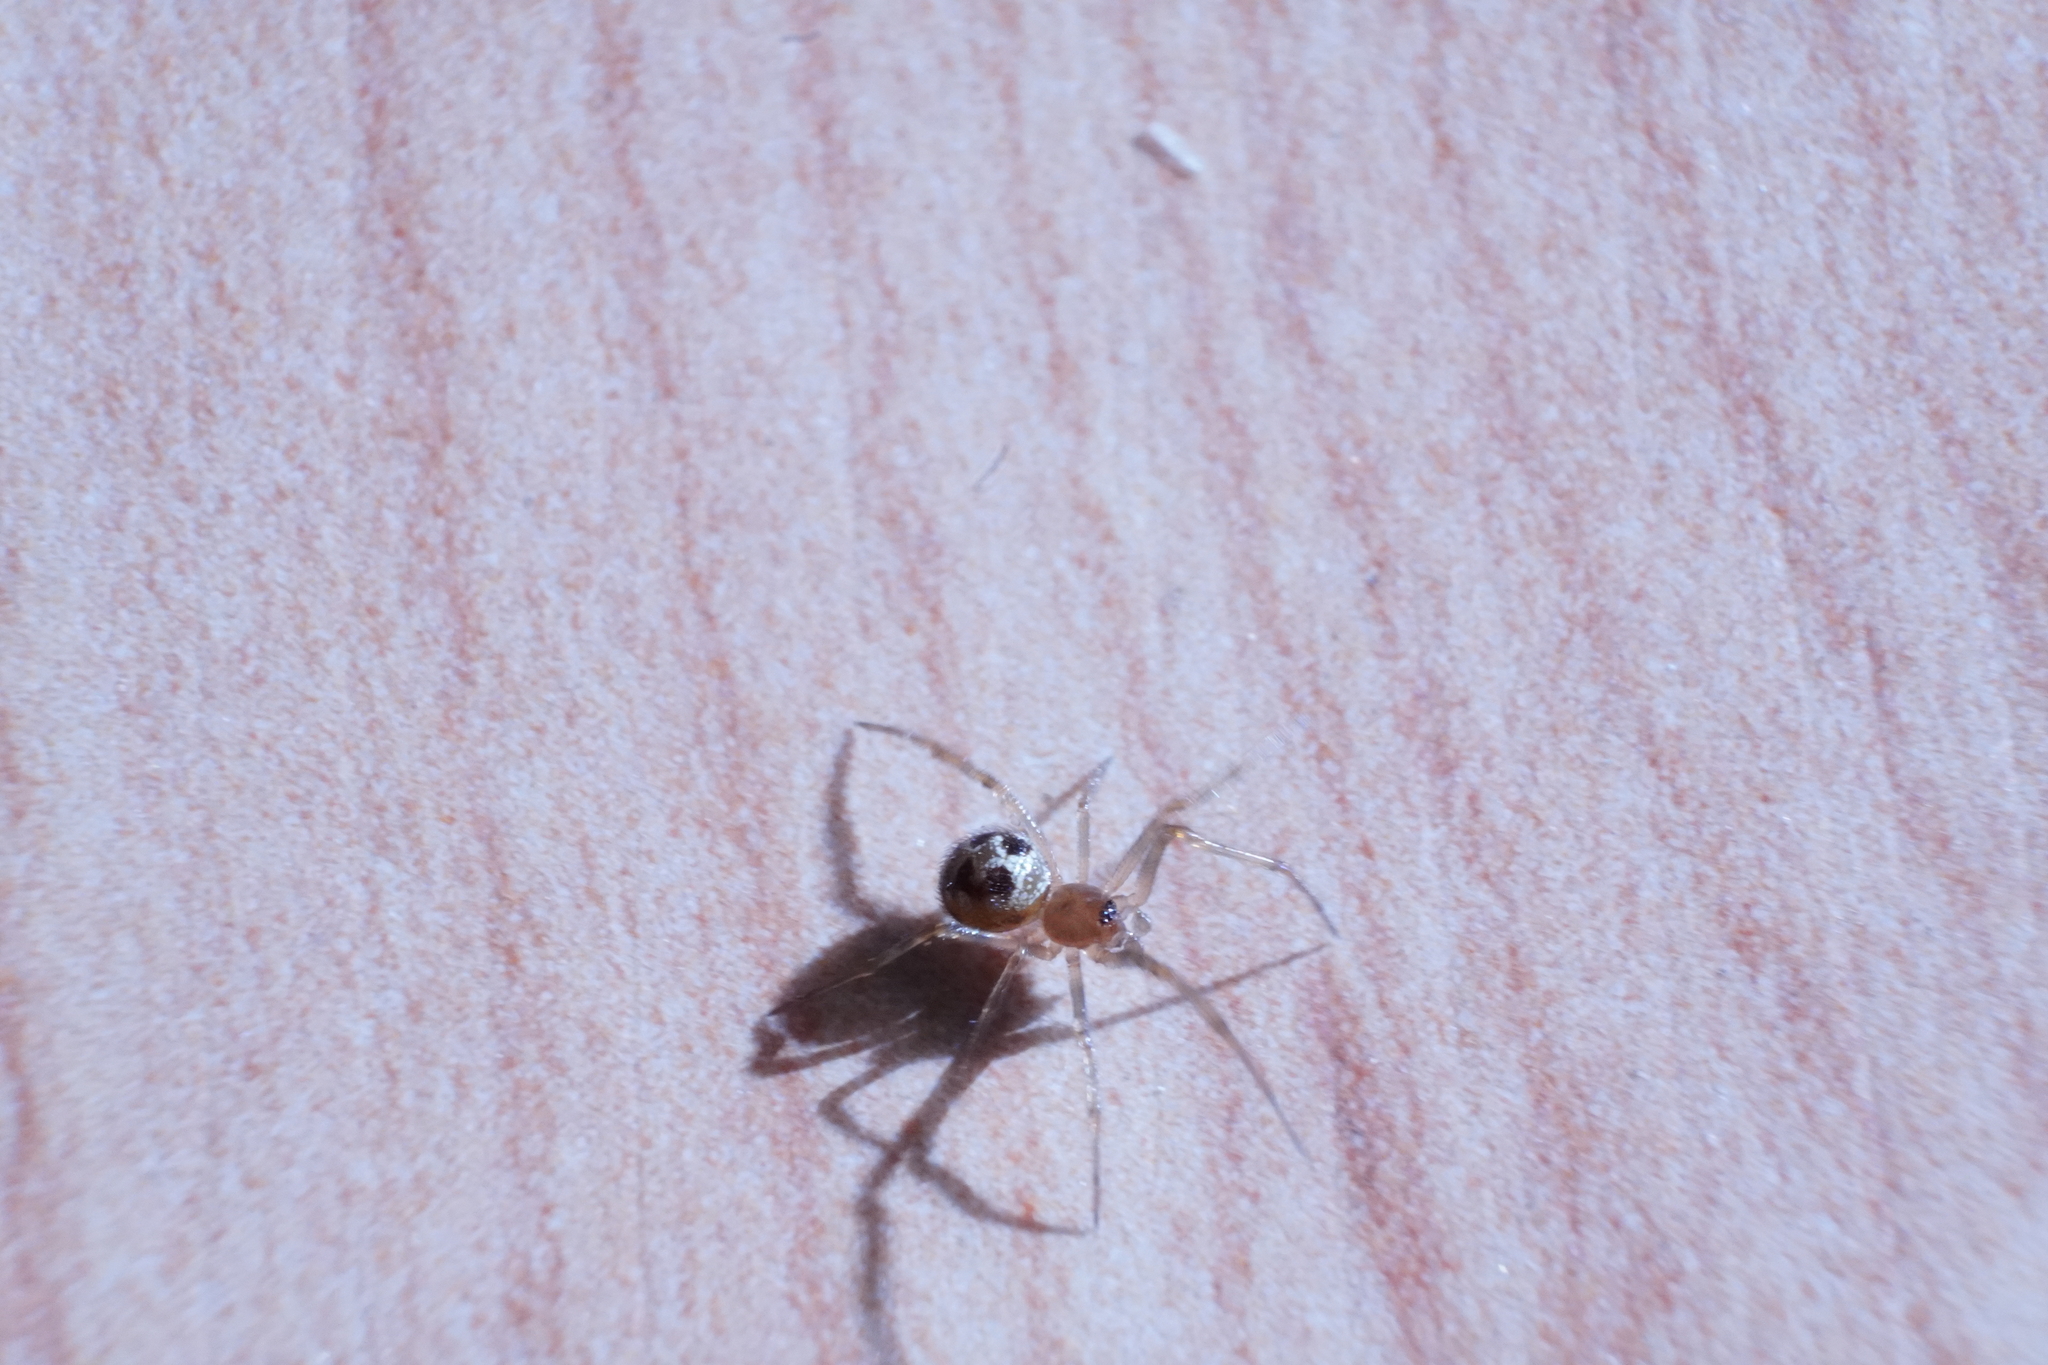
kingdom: Animalia
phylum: Arthropoda
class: Arachnida
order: Araneae
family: Theridiidae
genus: Steatoda
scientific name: Steatoda triangulosa
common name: Triangulate bud spider
